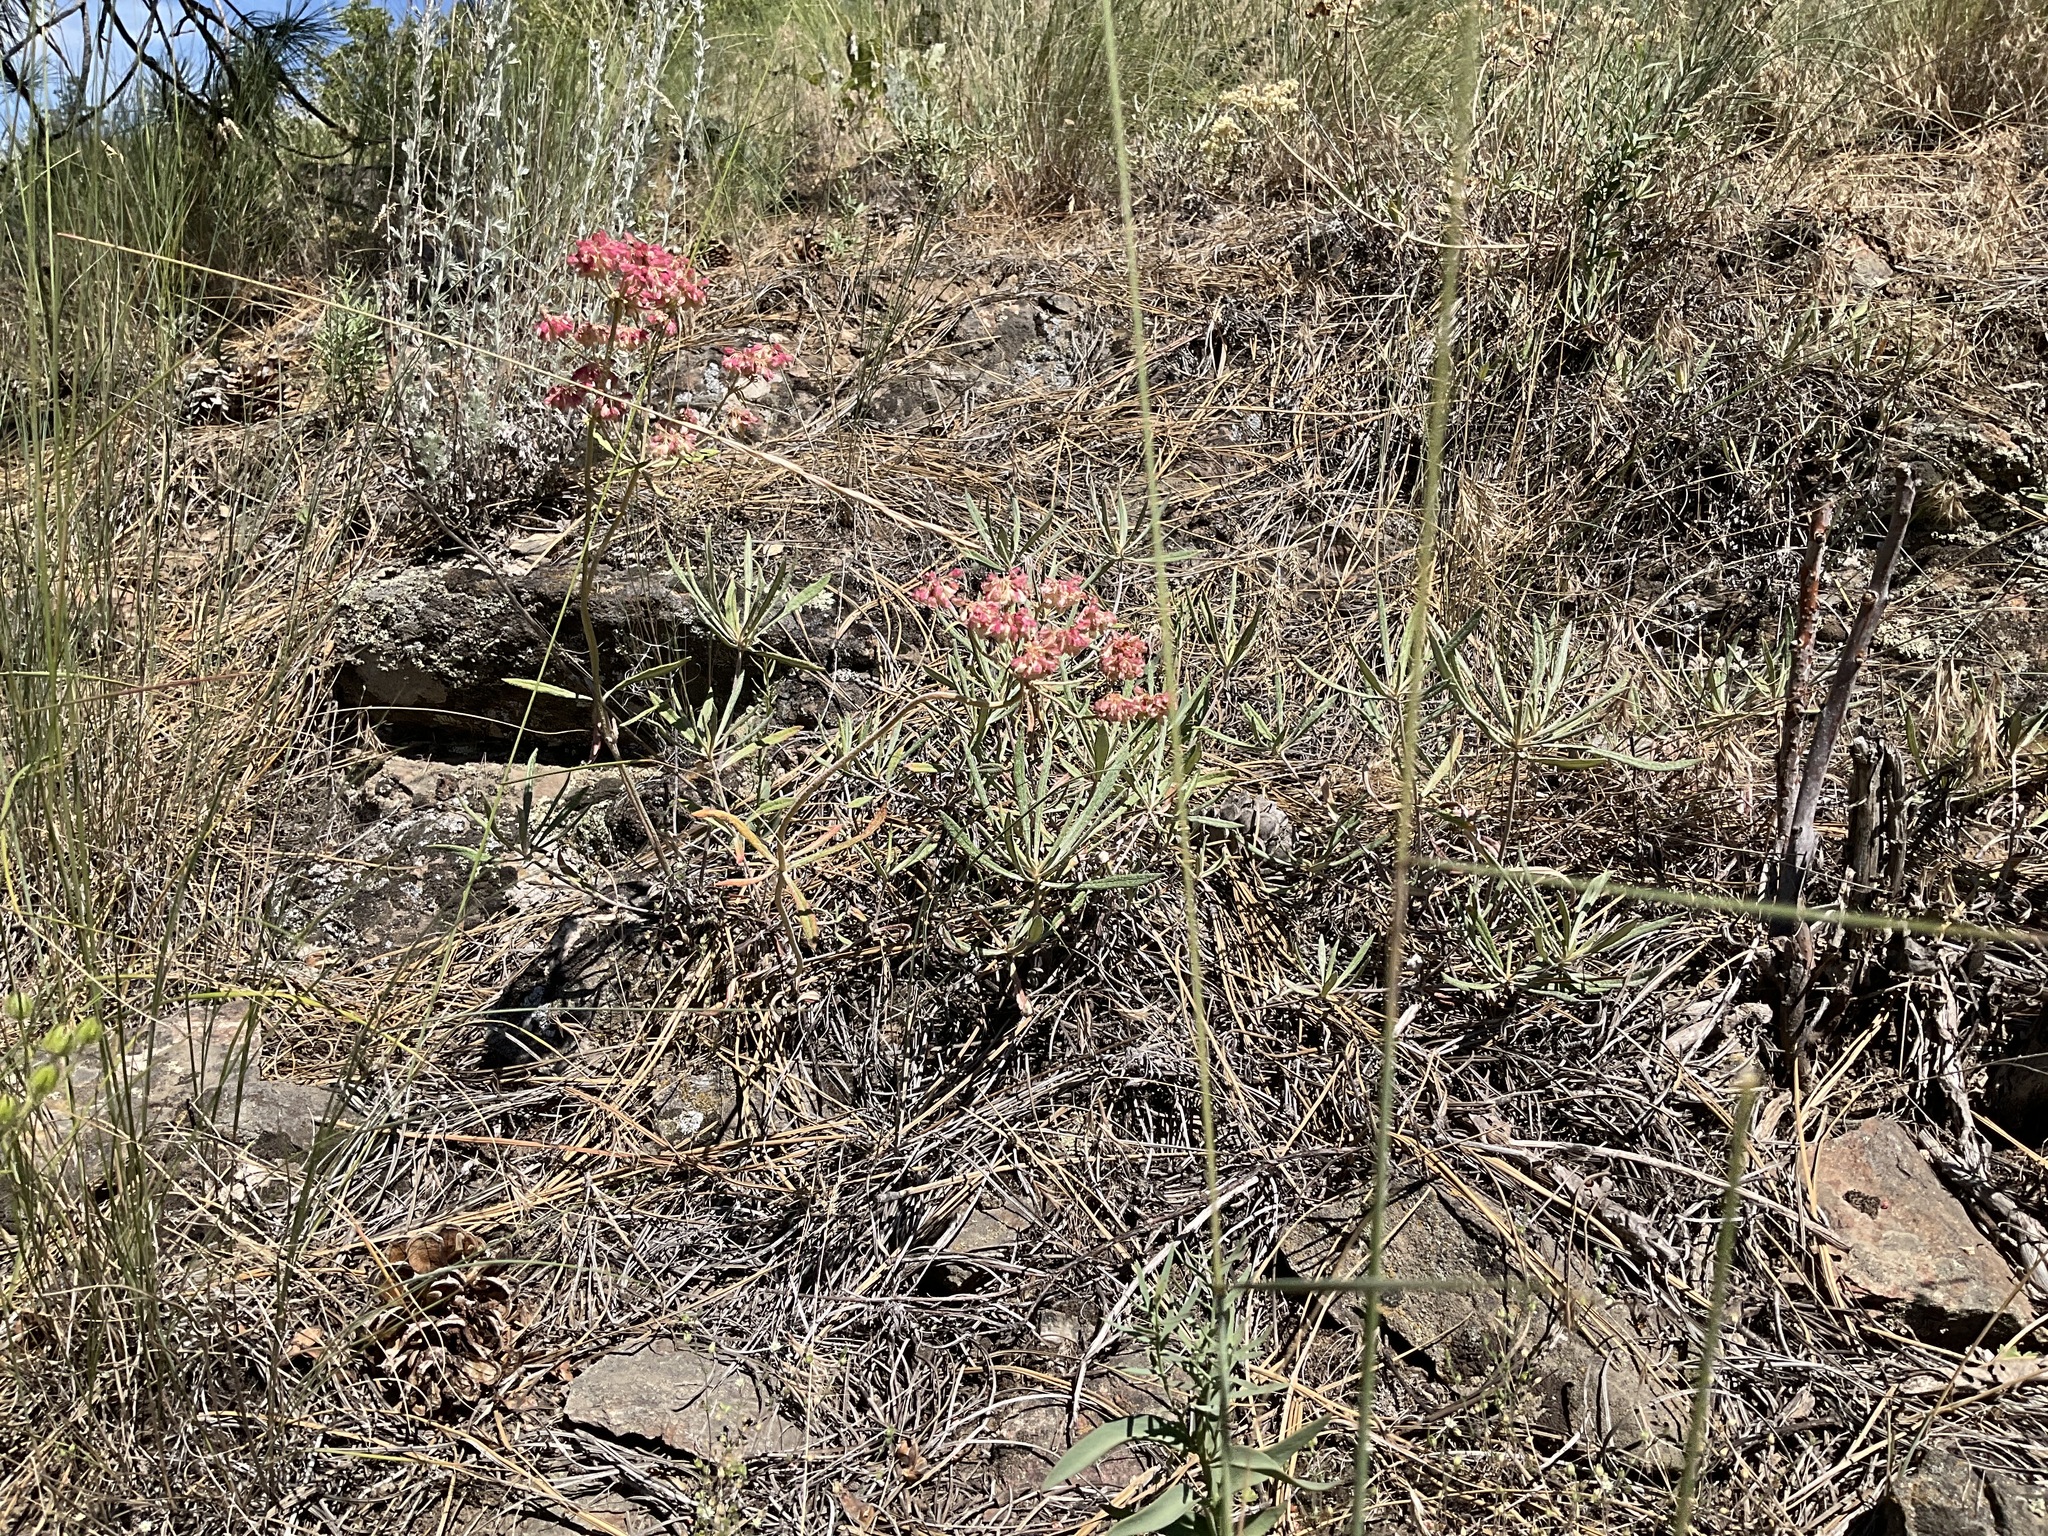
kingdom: Plantae
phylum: Tracheophyta
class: Magnoliopsida
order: Caryophyllales
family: Polygonaceae
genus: Eriogonum
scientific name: Eriogonum heracleoides
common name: Wyeth's buckwheat
